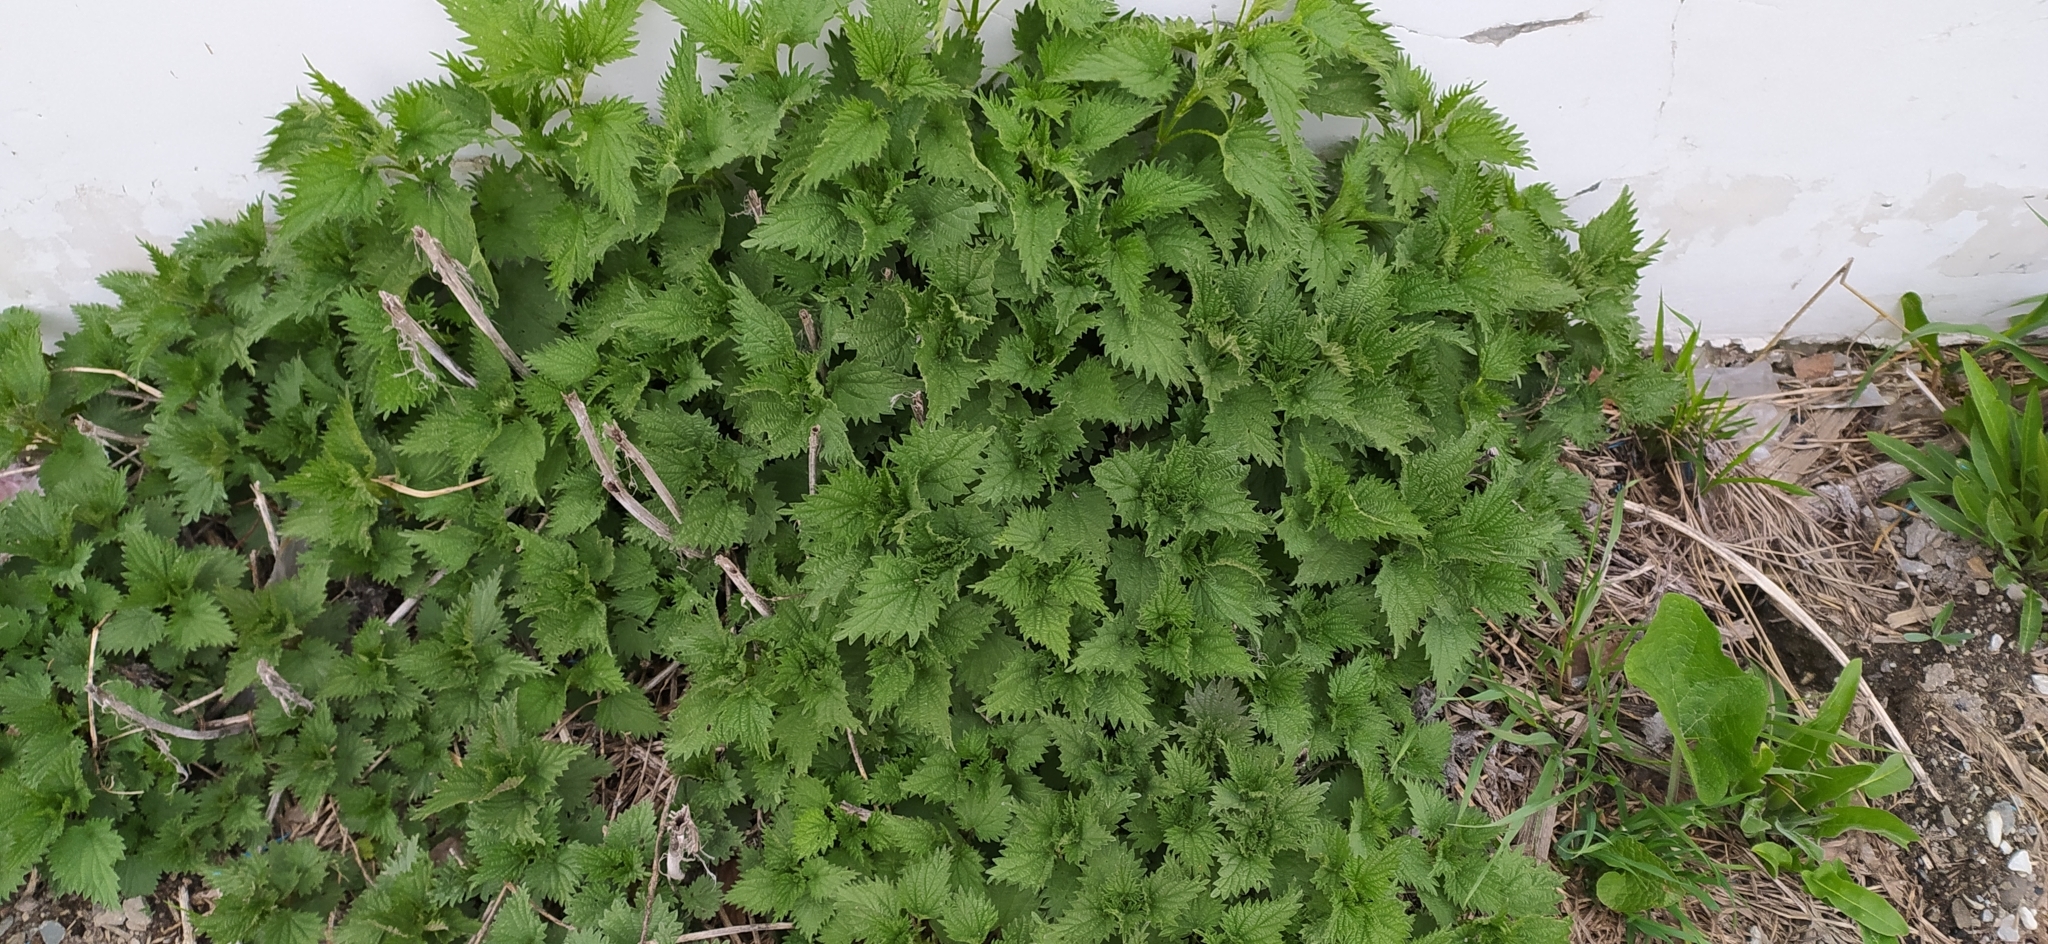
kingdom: Plantae
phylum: Tracheophyta
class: Magnoliopsida
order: Rosales
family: Urticaceae
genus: Urtica
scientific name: Urtica dioica
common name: Common nettle
